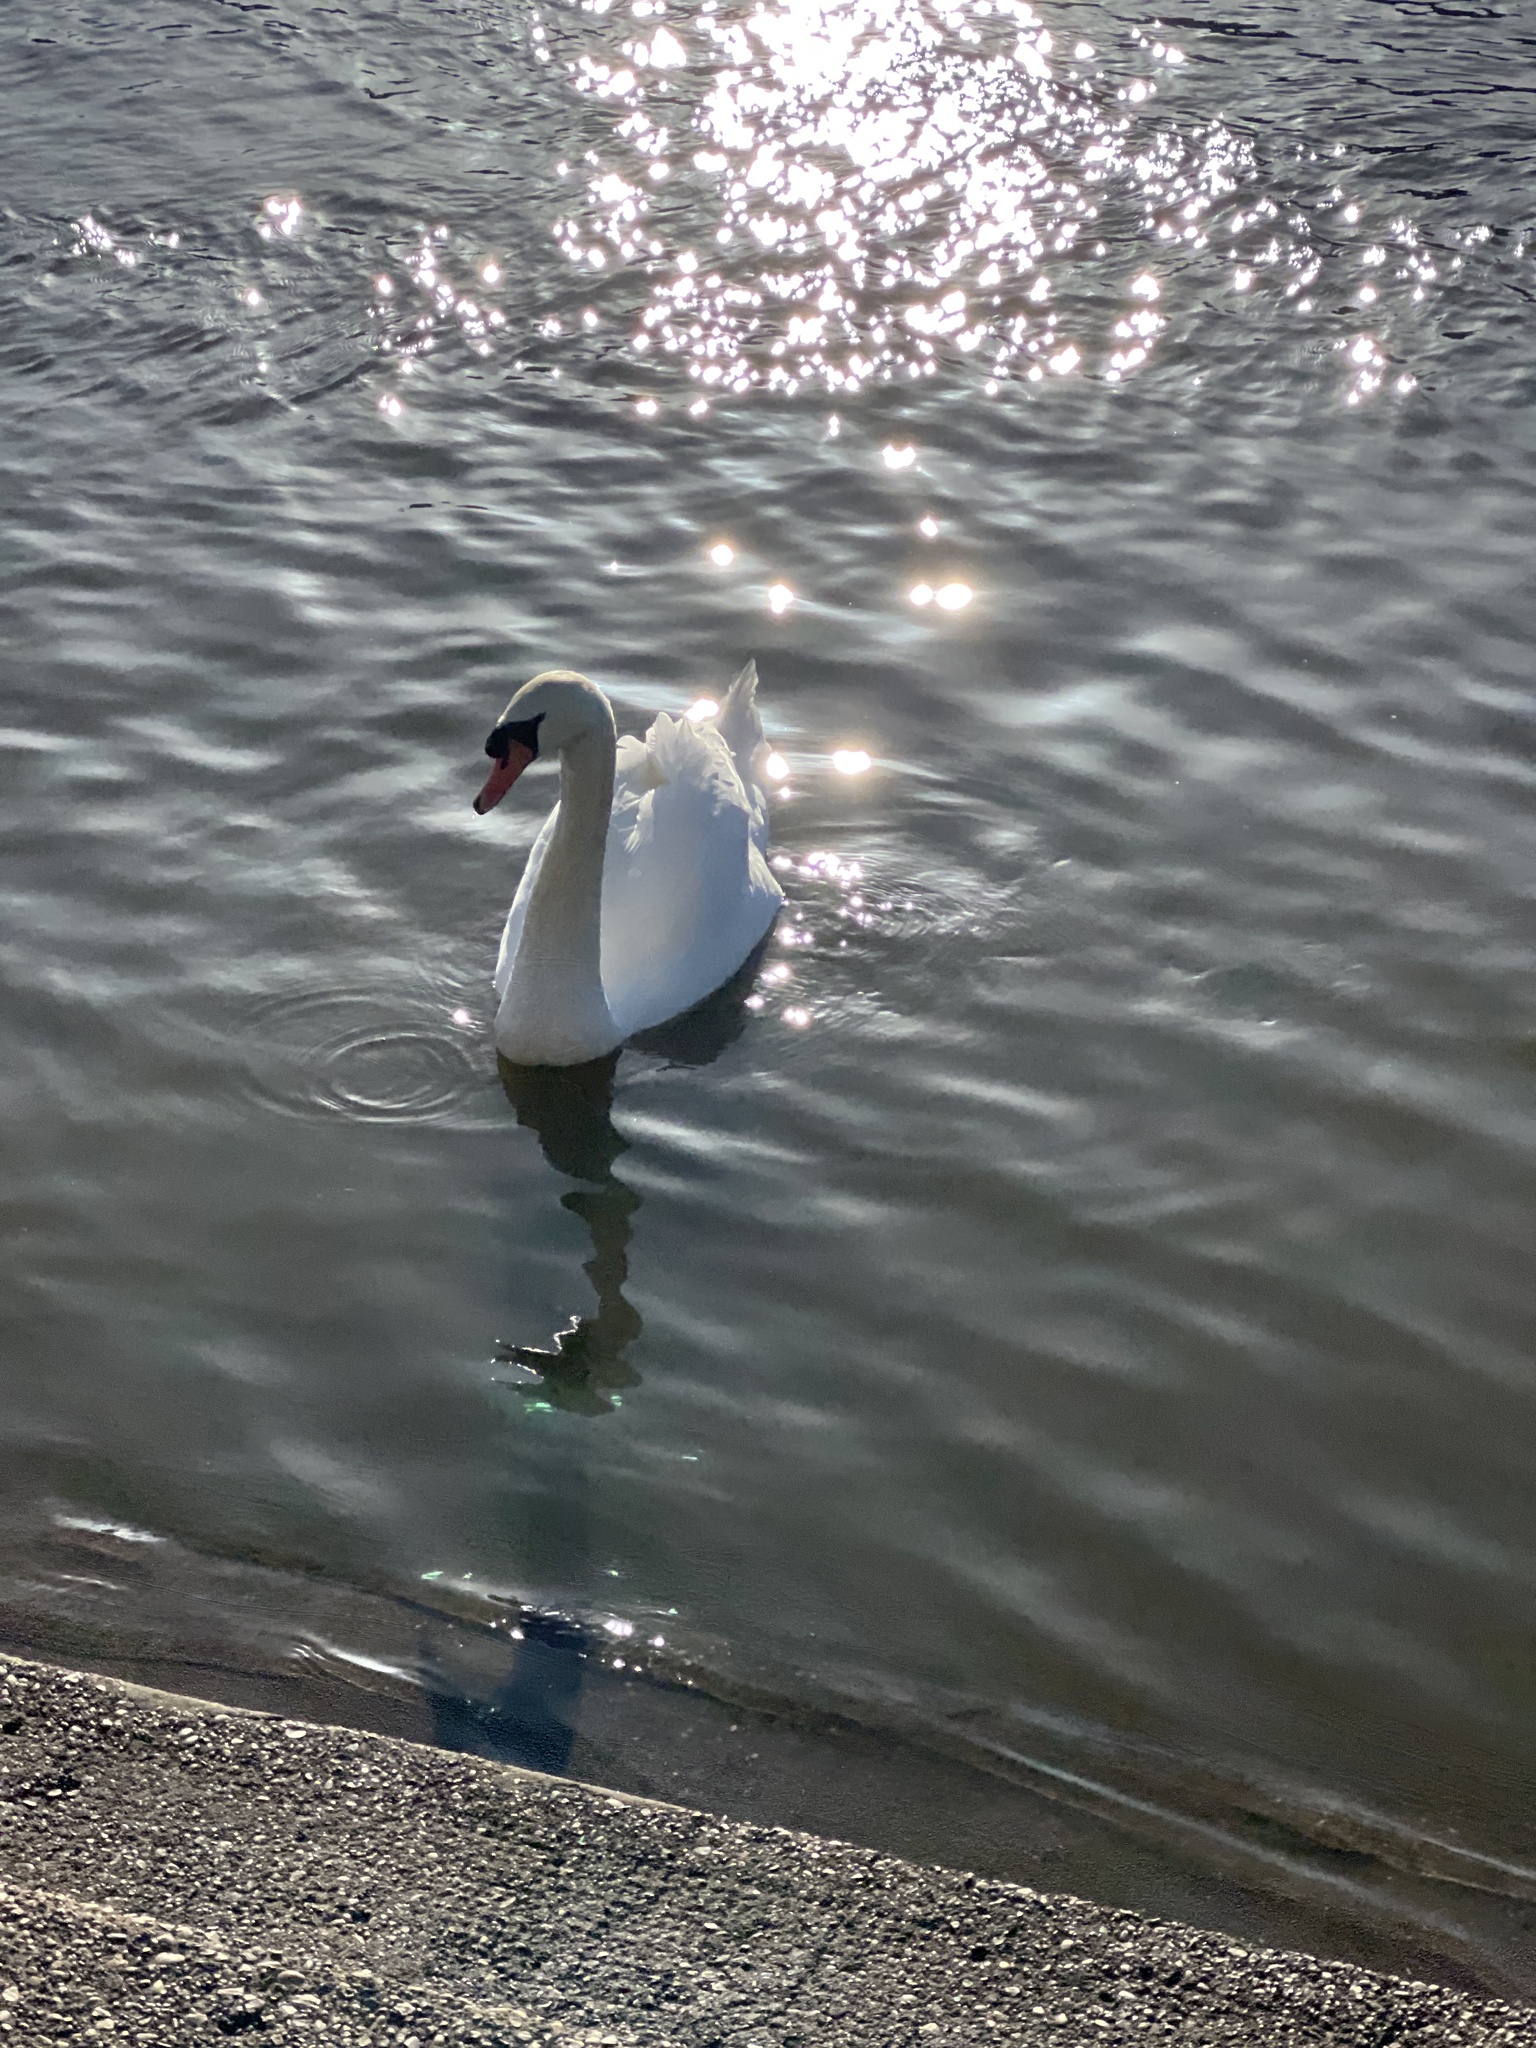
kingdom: Animalia
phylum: Chordata
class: Aves
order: Anseriformes
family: Anatidae
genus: Cygnus
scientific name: Cygnus olor
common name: Mute swan
